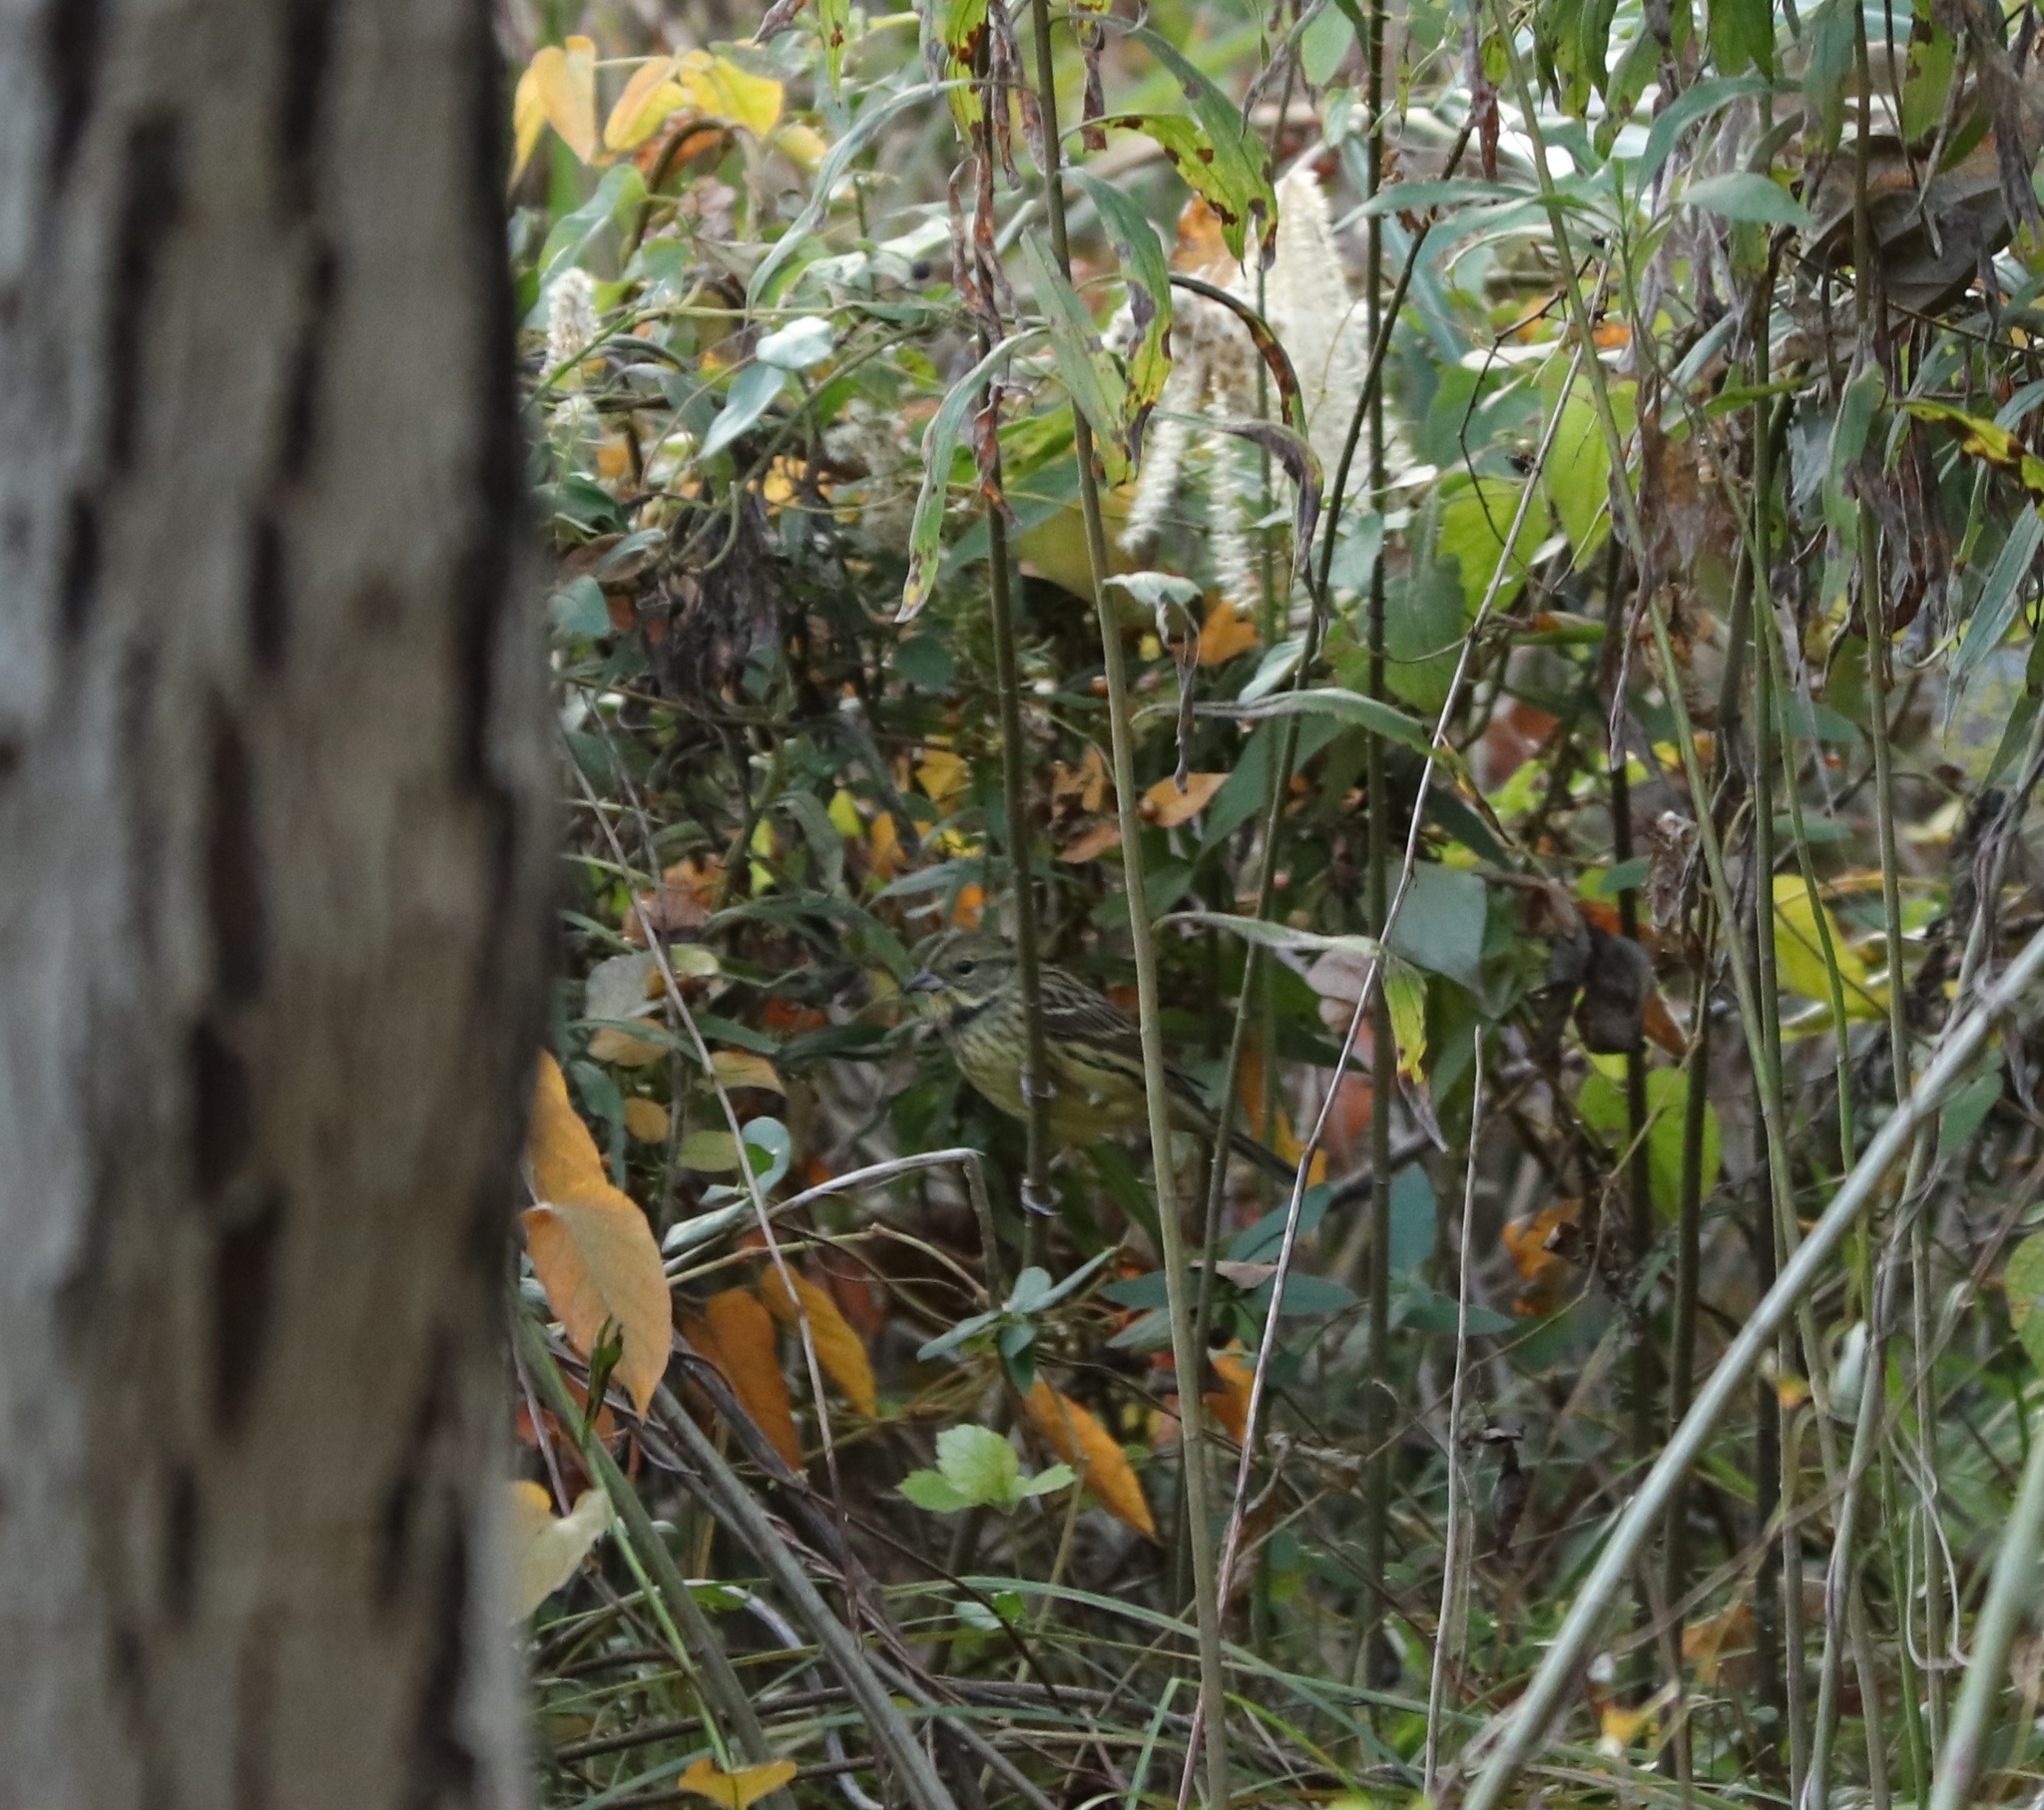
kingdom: Animalia
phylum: Chordata
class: Aves
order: Passeriformes
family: Emberizidae
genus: Emberiza
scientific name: Emberiza personata
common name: Masked bunting
